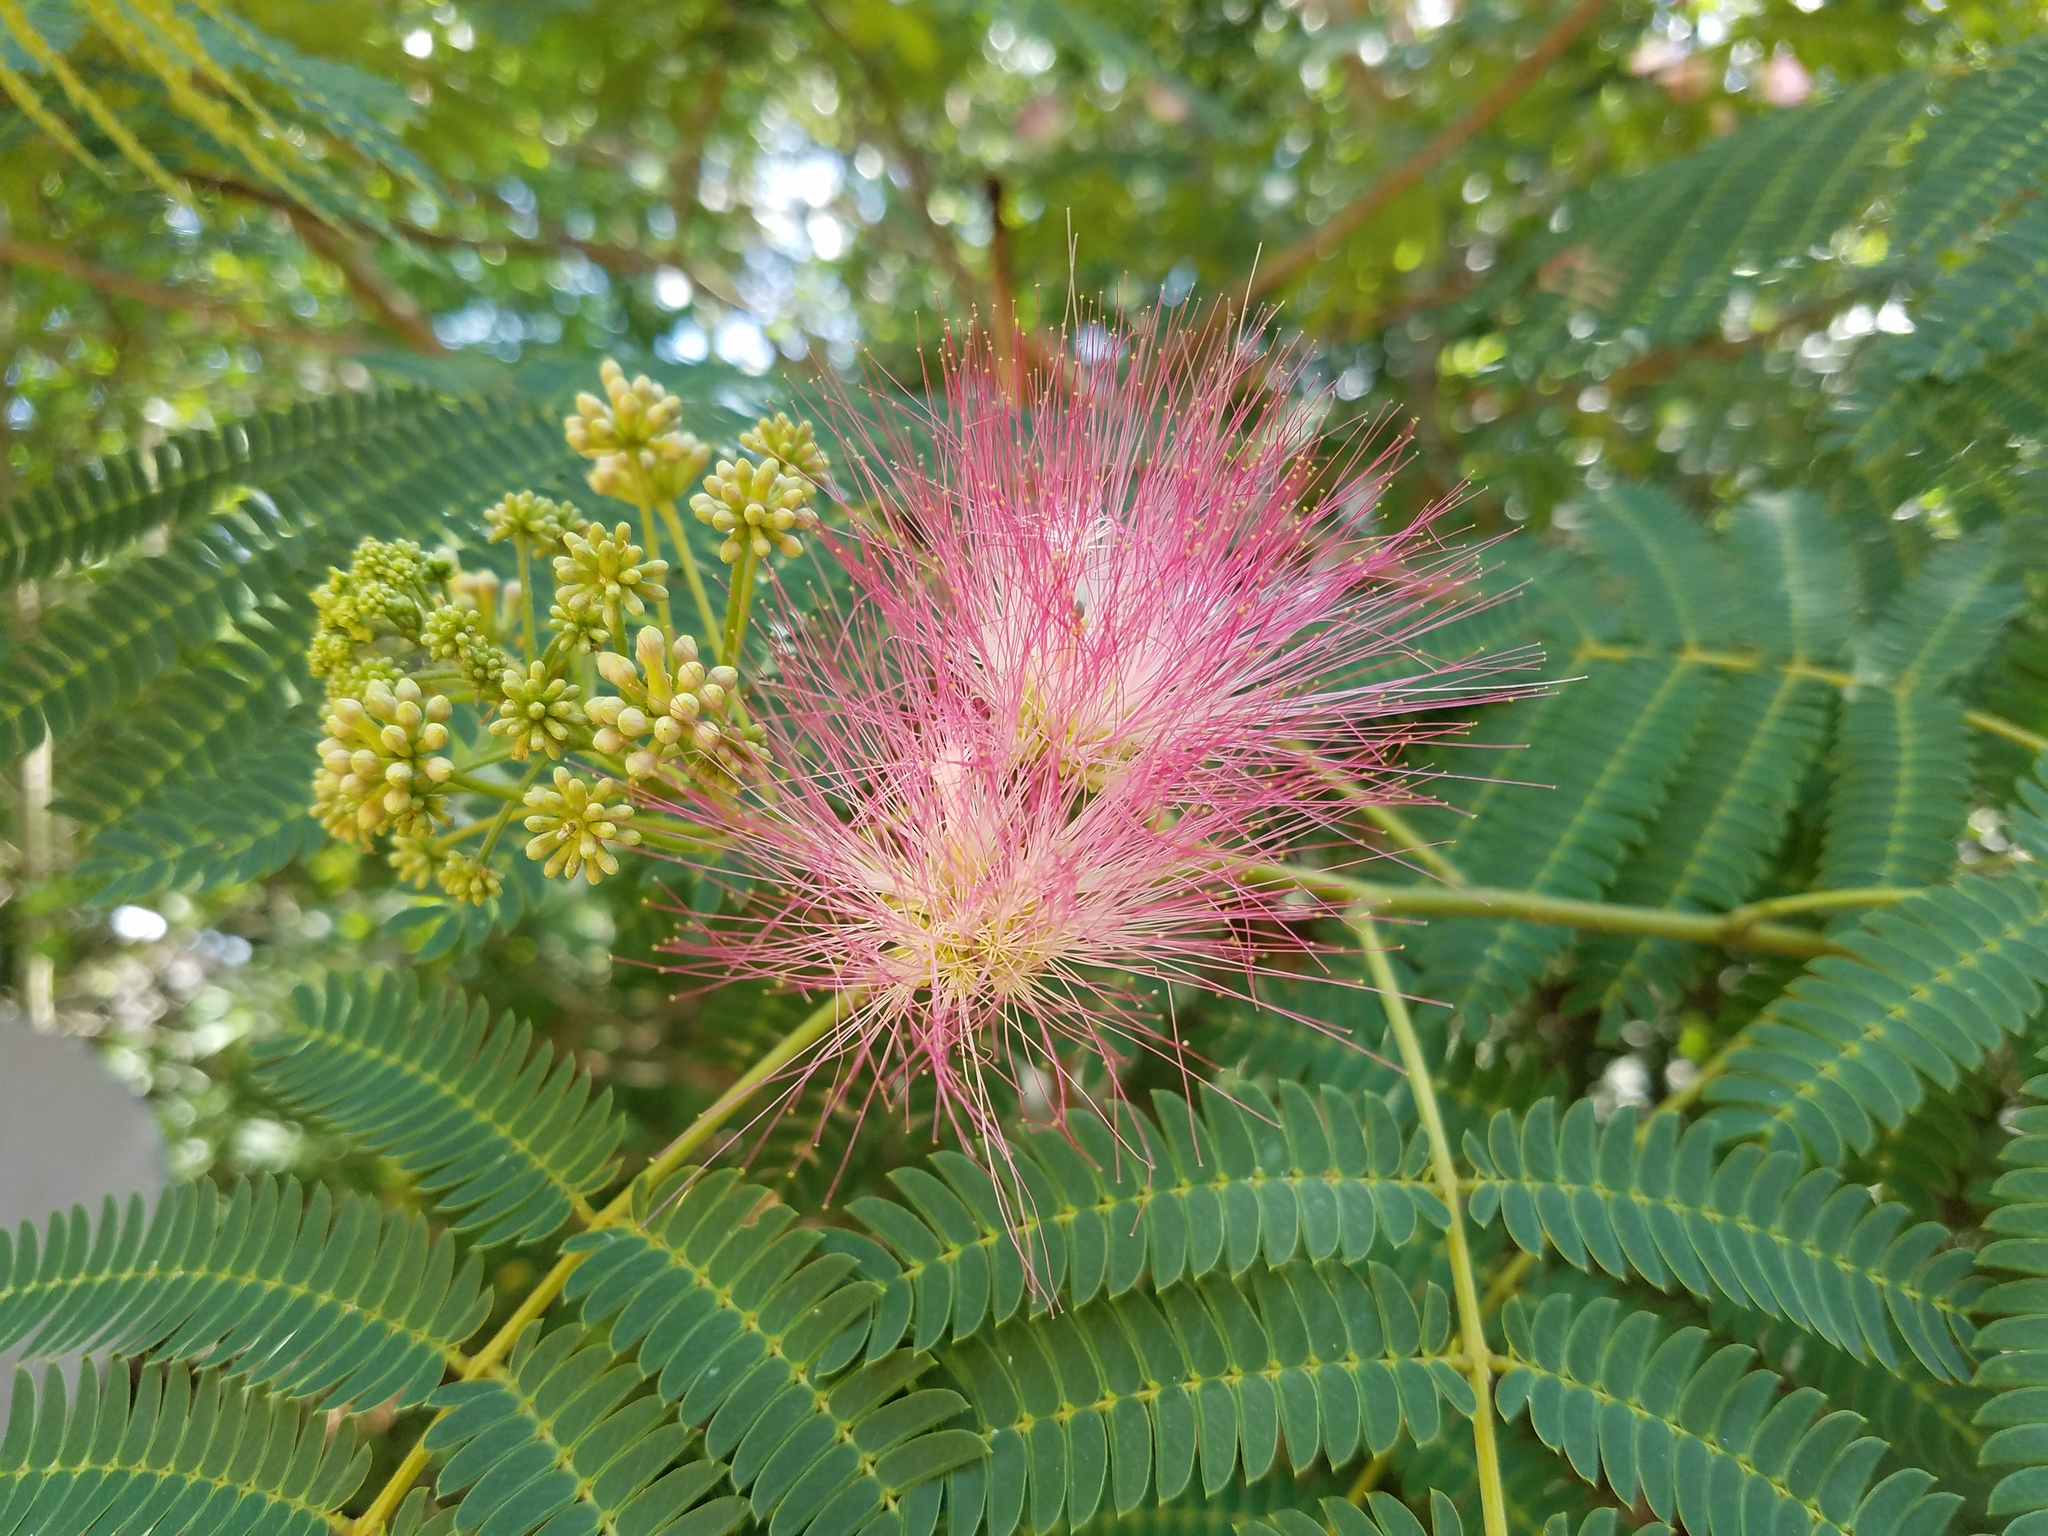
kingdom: Plantae
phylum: Tracheophyta
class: Magnoliopsida
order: Fabales
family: Fabaceae
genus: Albizia
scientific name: Albizia julibrissin
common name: Silktree
